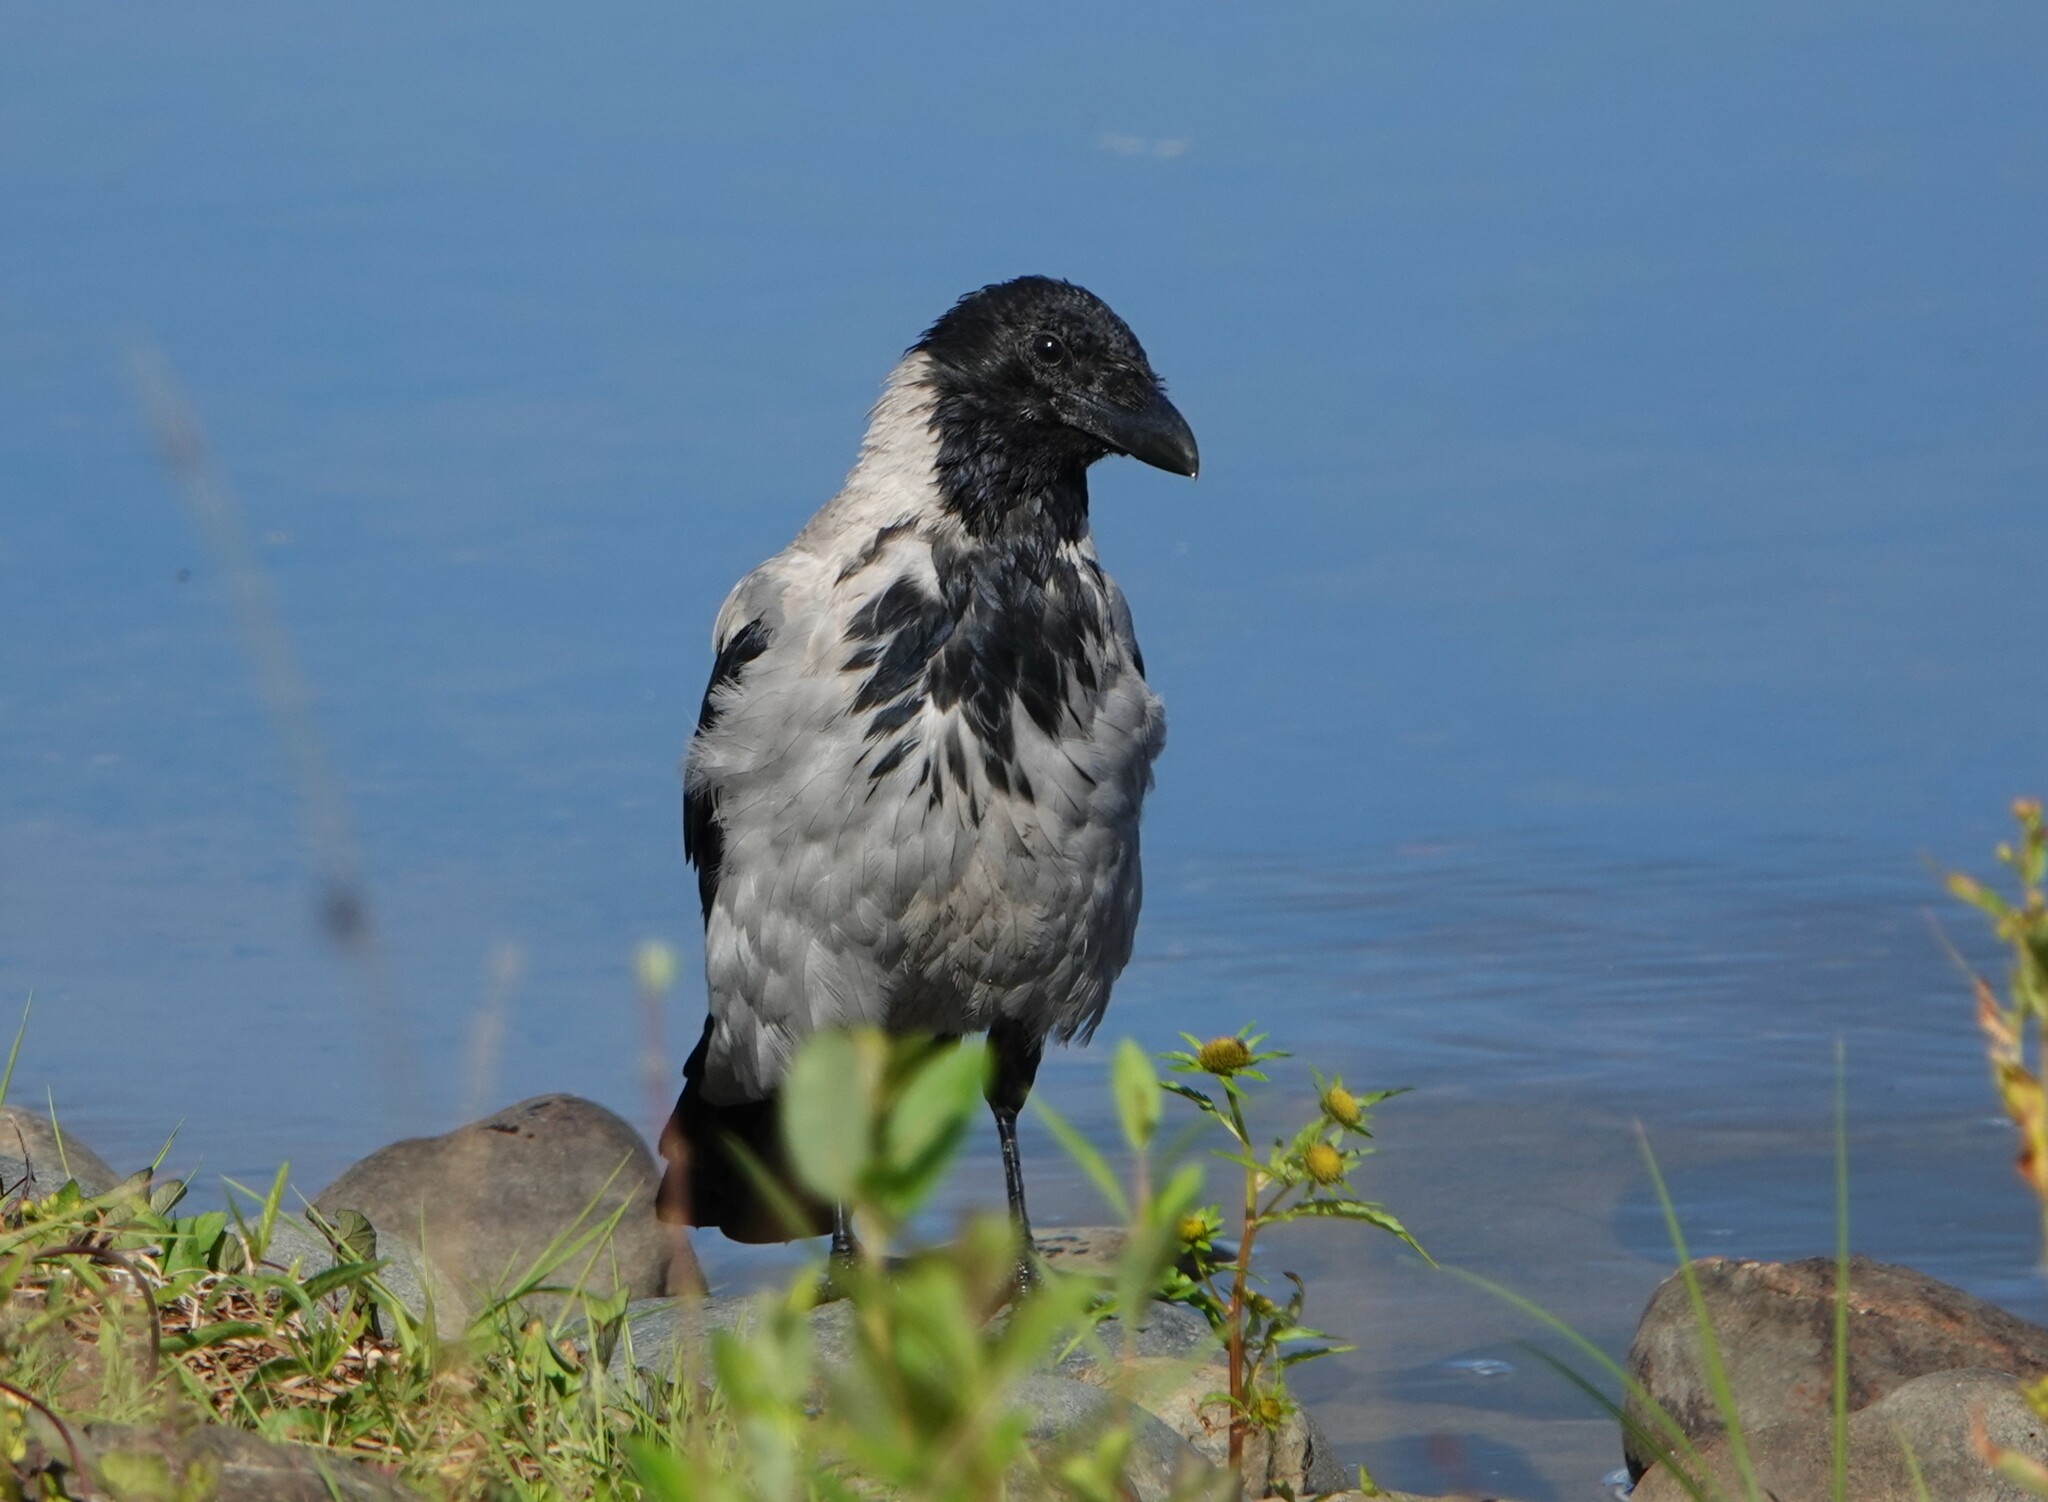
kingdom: Animalia
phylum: Chordata
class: Aves
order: Passeriformes
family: Corvidae
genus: Corvus
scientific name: Corvus cornix
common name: Hooded crow
